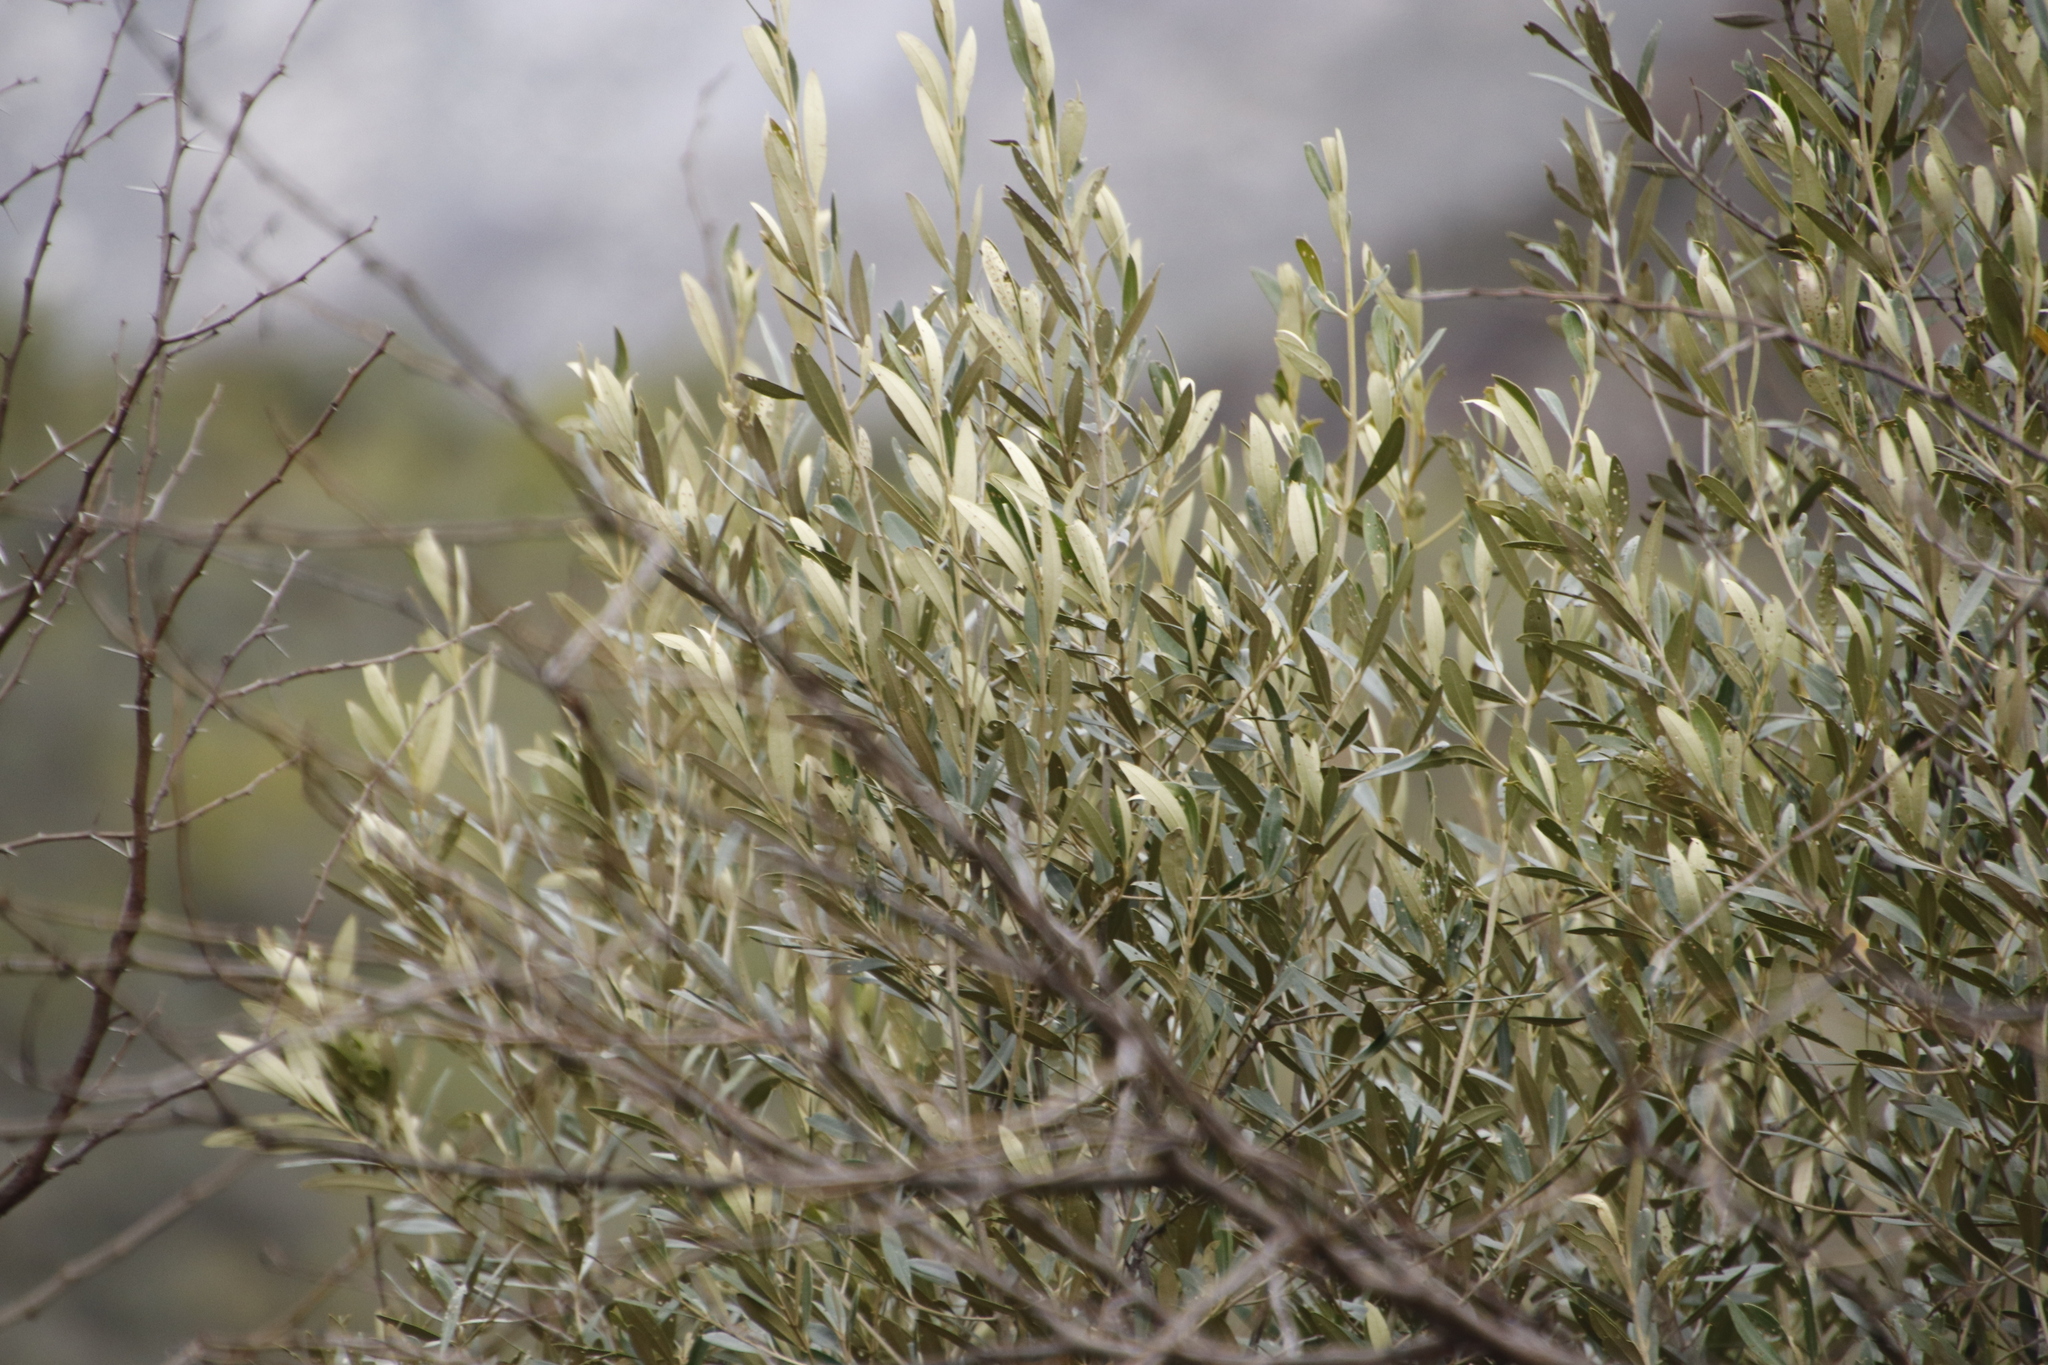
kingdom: Plantae
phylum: Tracheophyta
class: Magnoliopsida
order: Lamiales
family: Oleaceae
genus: Olea
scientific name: Olea europaea
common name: Olive
